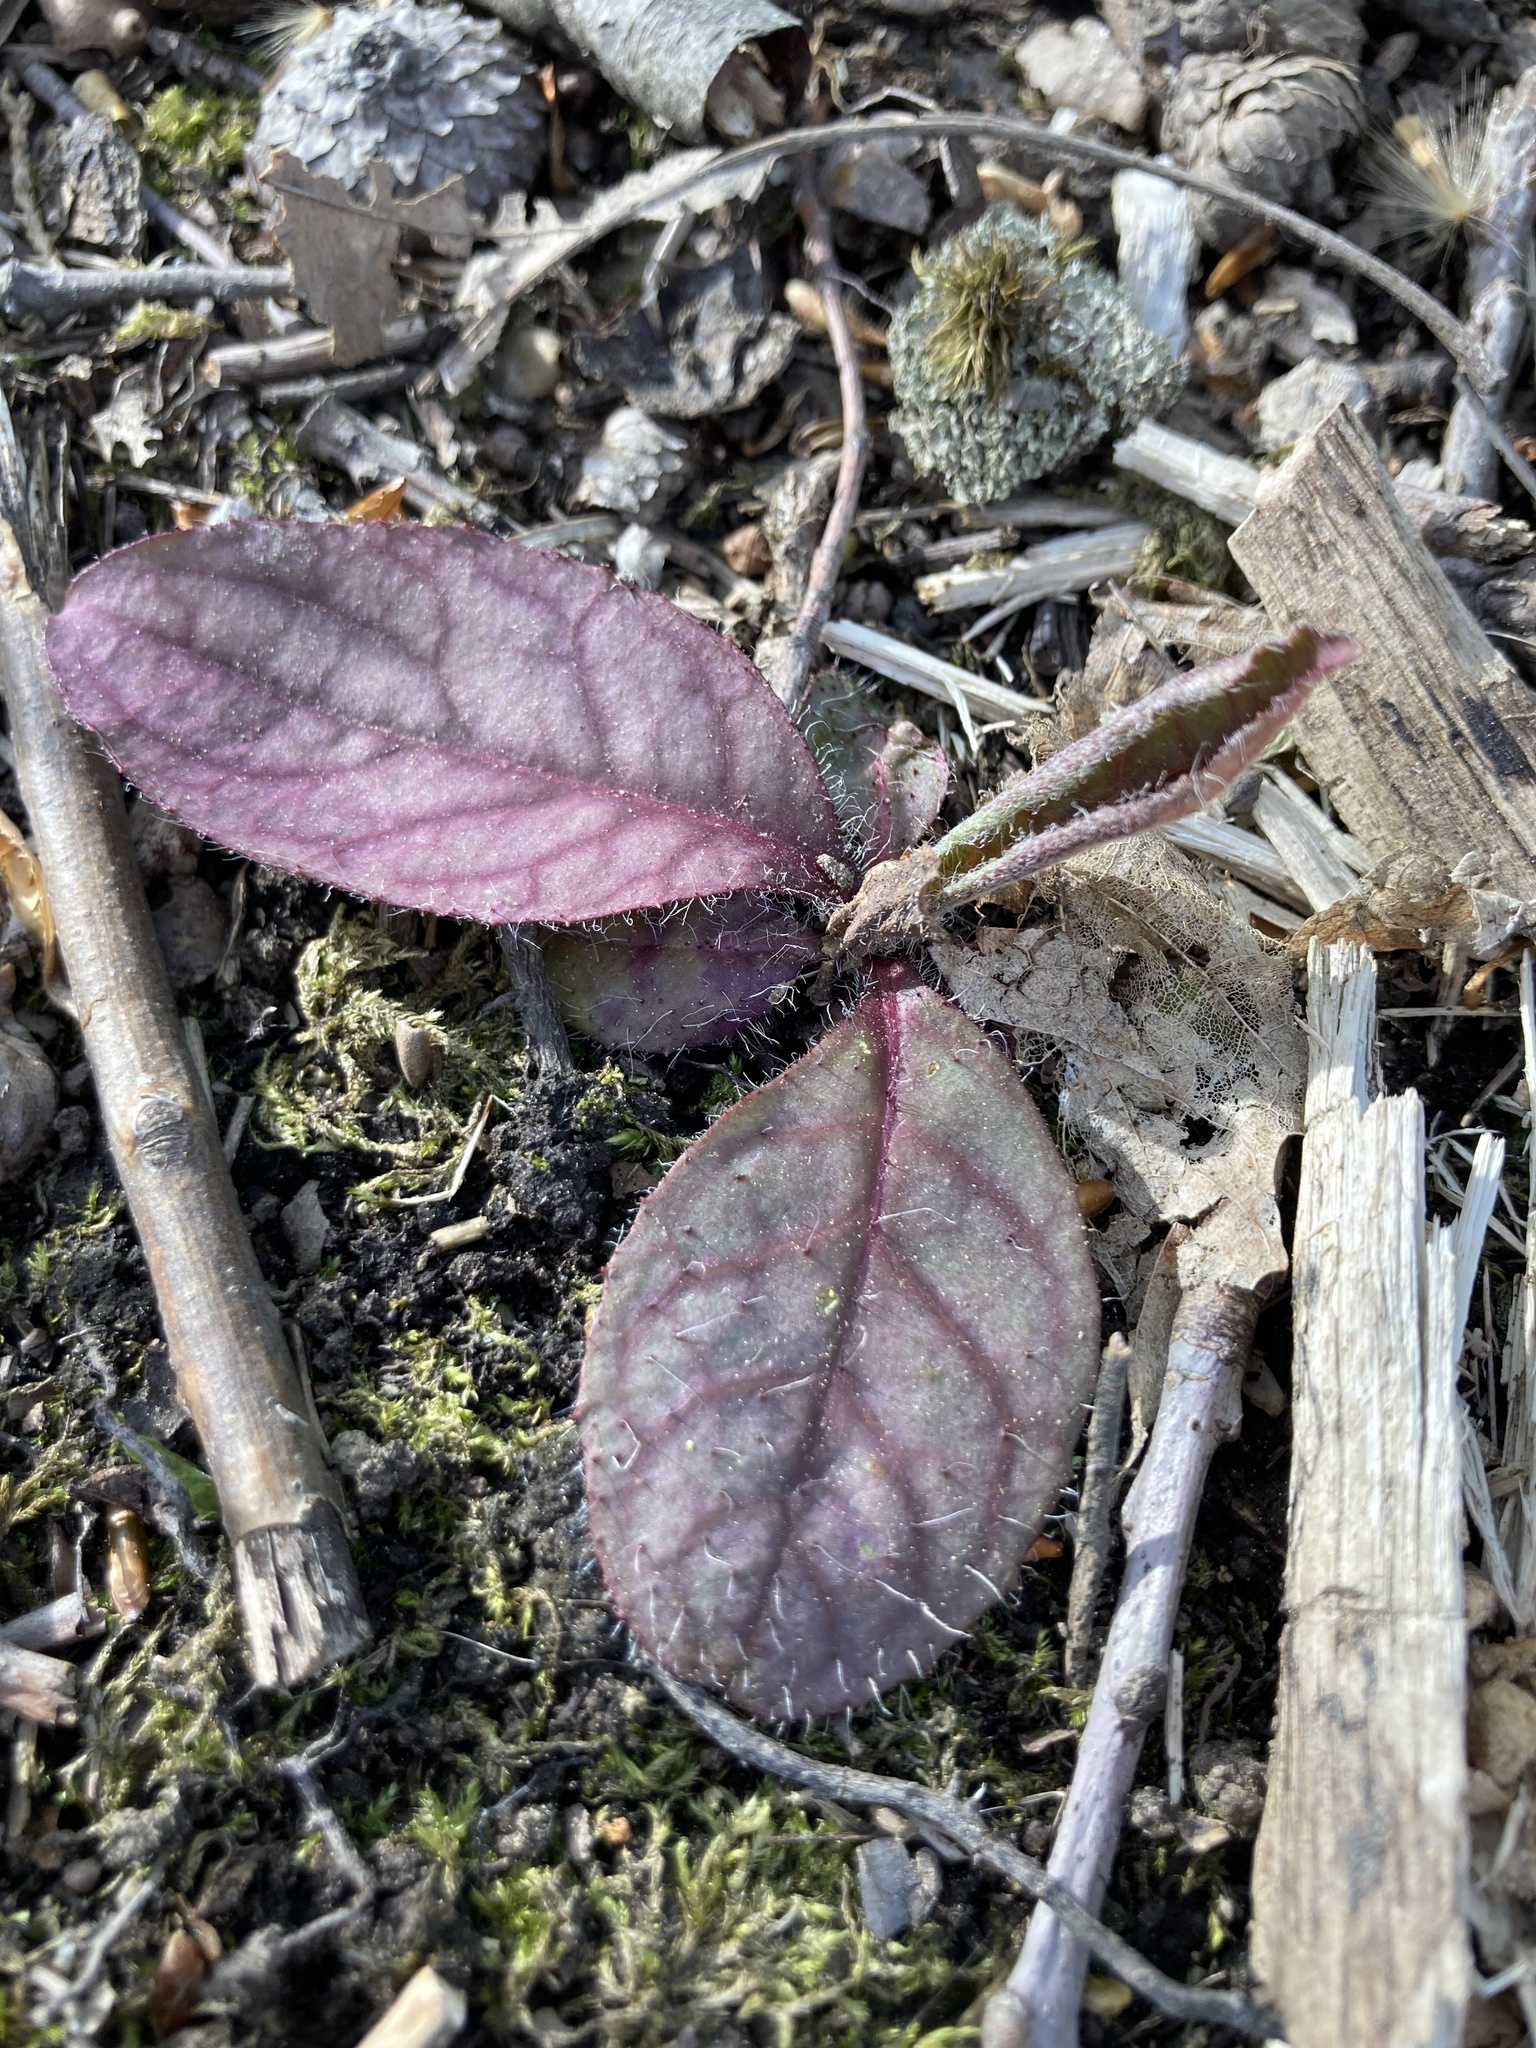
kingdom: Plantae
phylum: Tracheophyta
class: Magnoliopsida
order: Asterales
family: Asteraceae
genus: Hieracium
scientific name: Hieracium venosum
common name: Rattlesnake hawkweed
